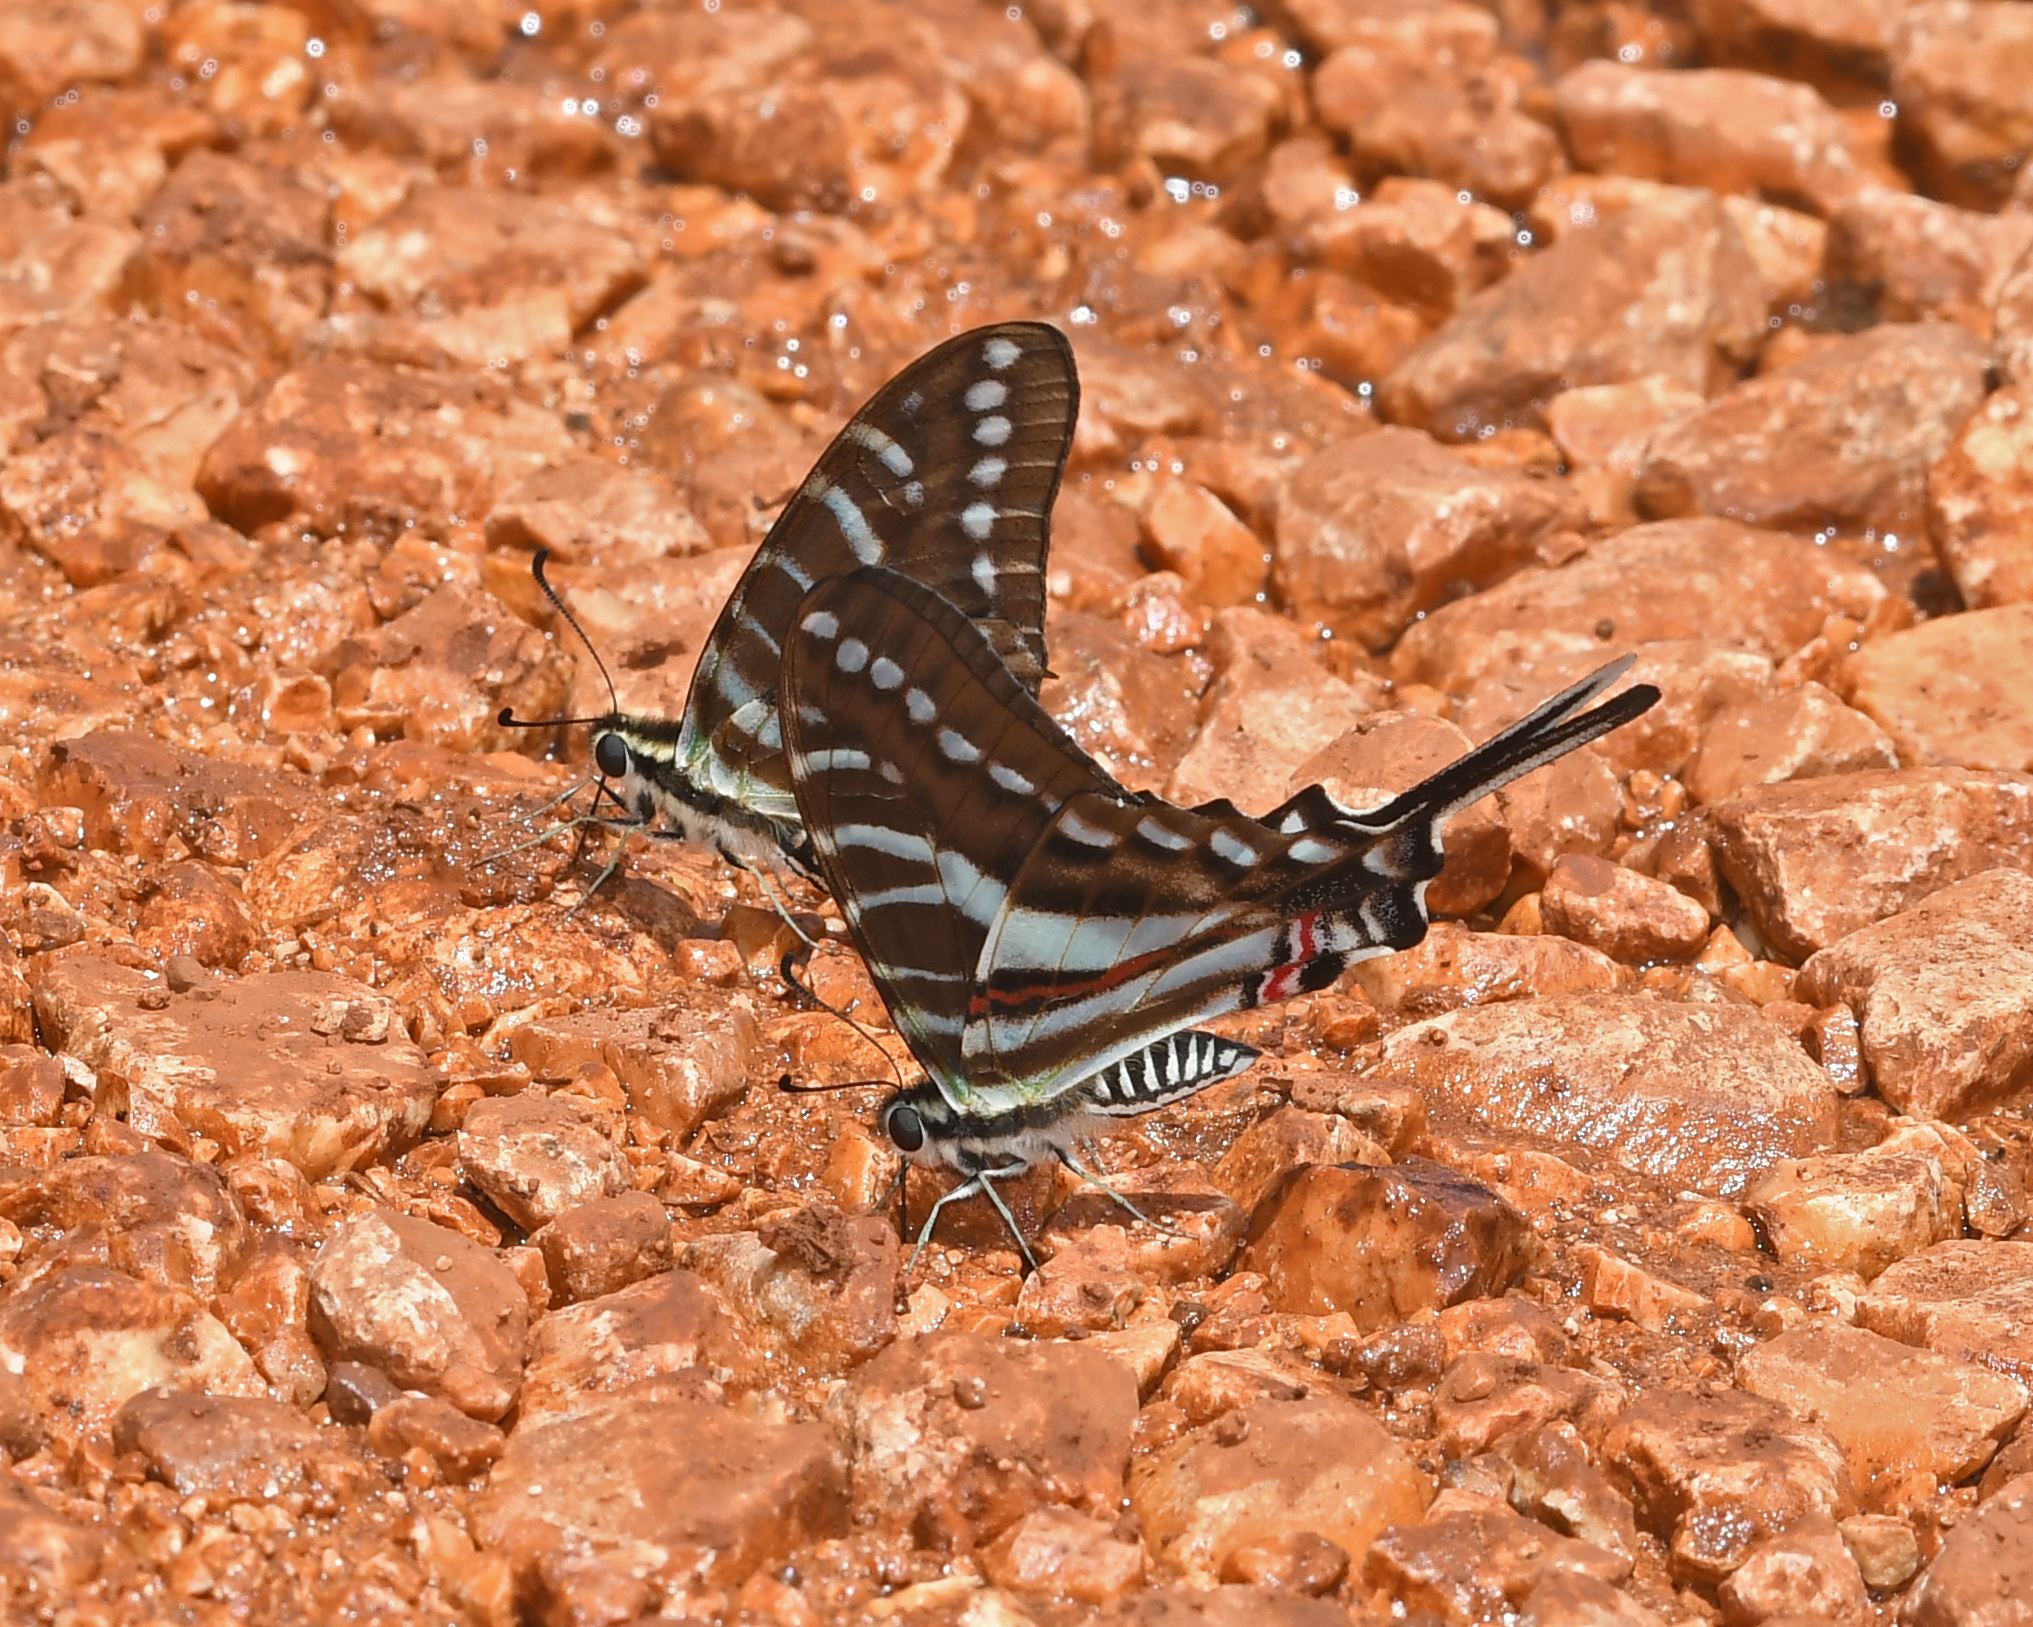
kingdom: Animalia
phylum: Arthropoda
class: Insecta
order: Lepidoptera
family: Papilionidae
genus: Eurytides
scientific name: Eurytides
